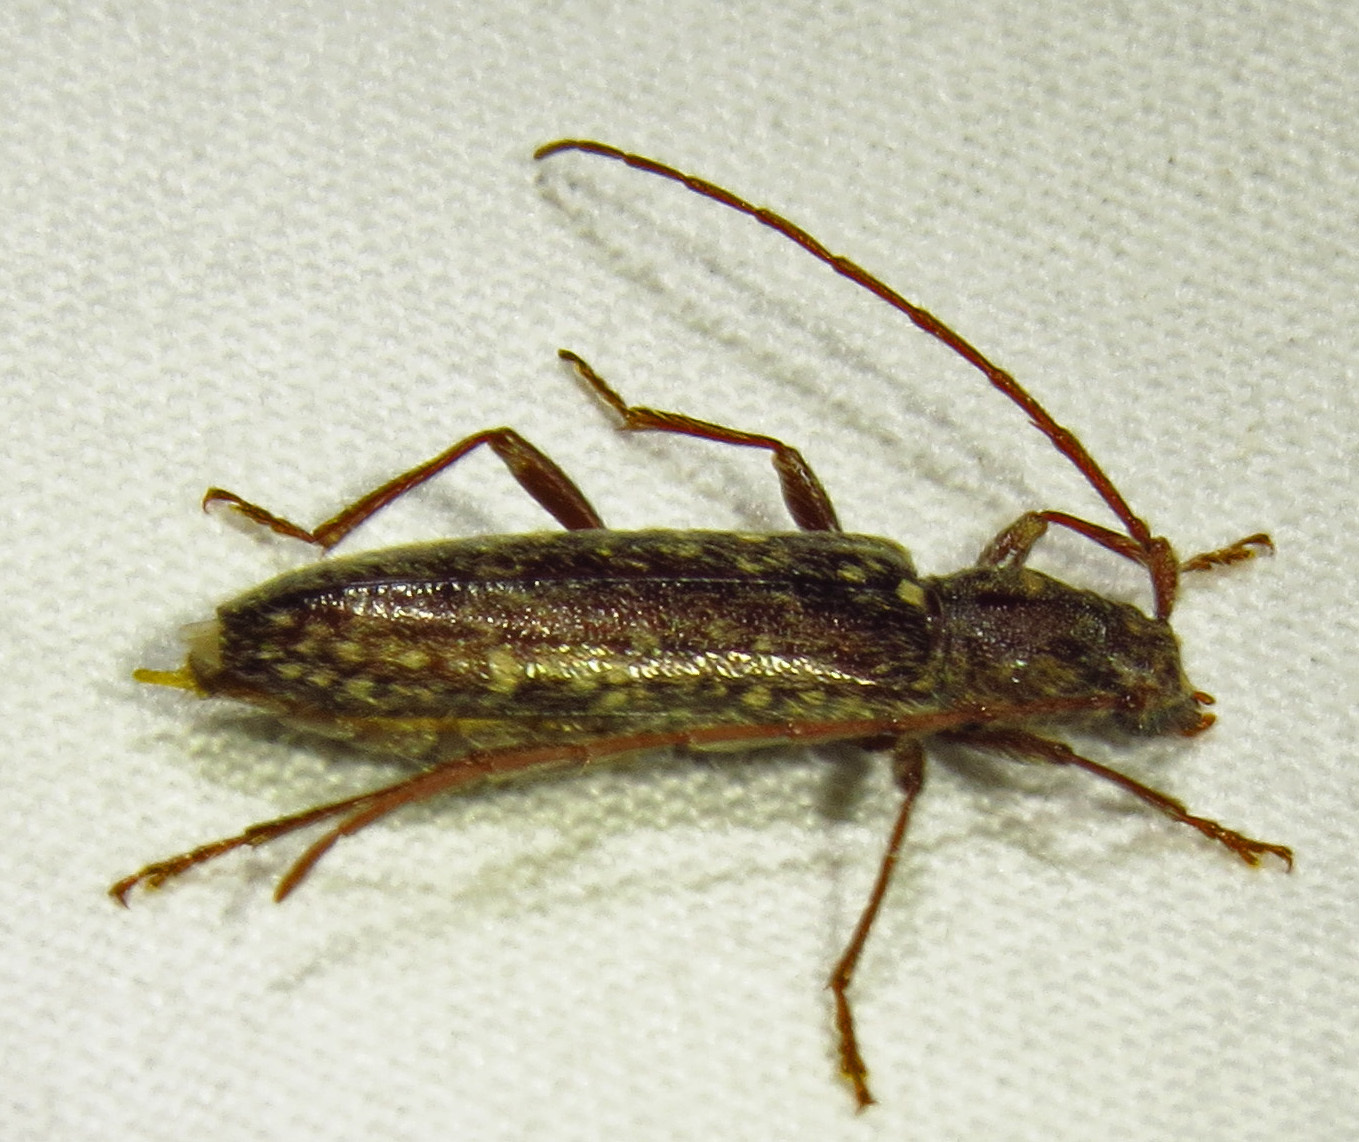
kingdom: Animalia
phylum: Arthropoda
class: Insecta
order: Coleoptera
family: Cerambycidae
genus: Anelaphus
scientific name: Anelaphus pumilus
